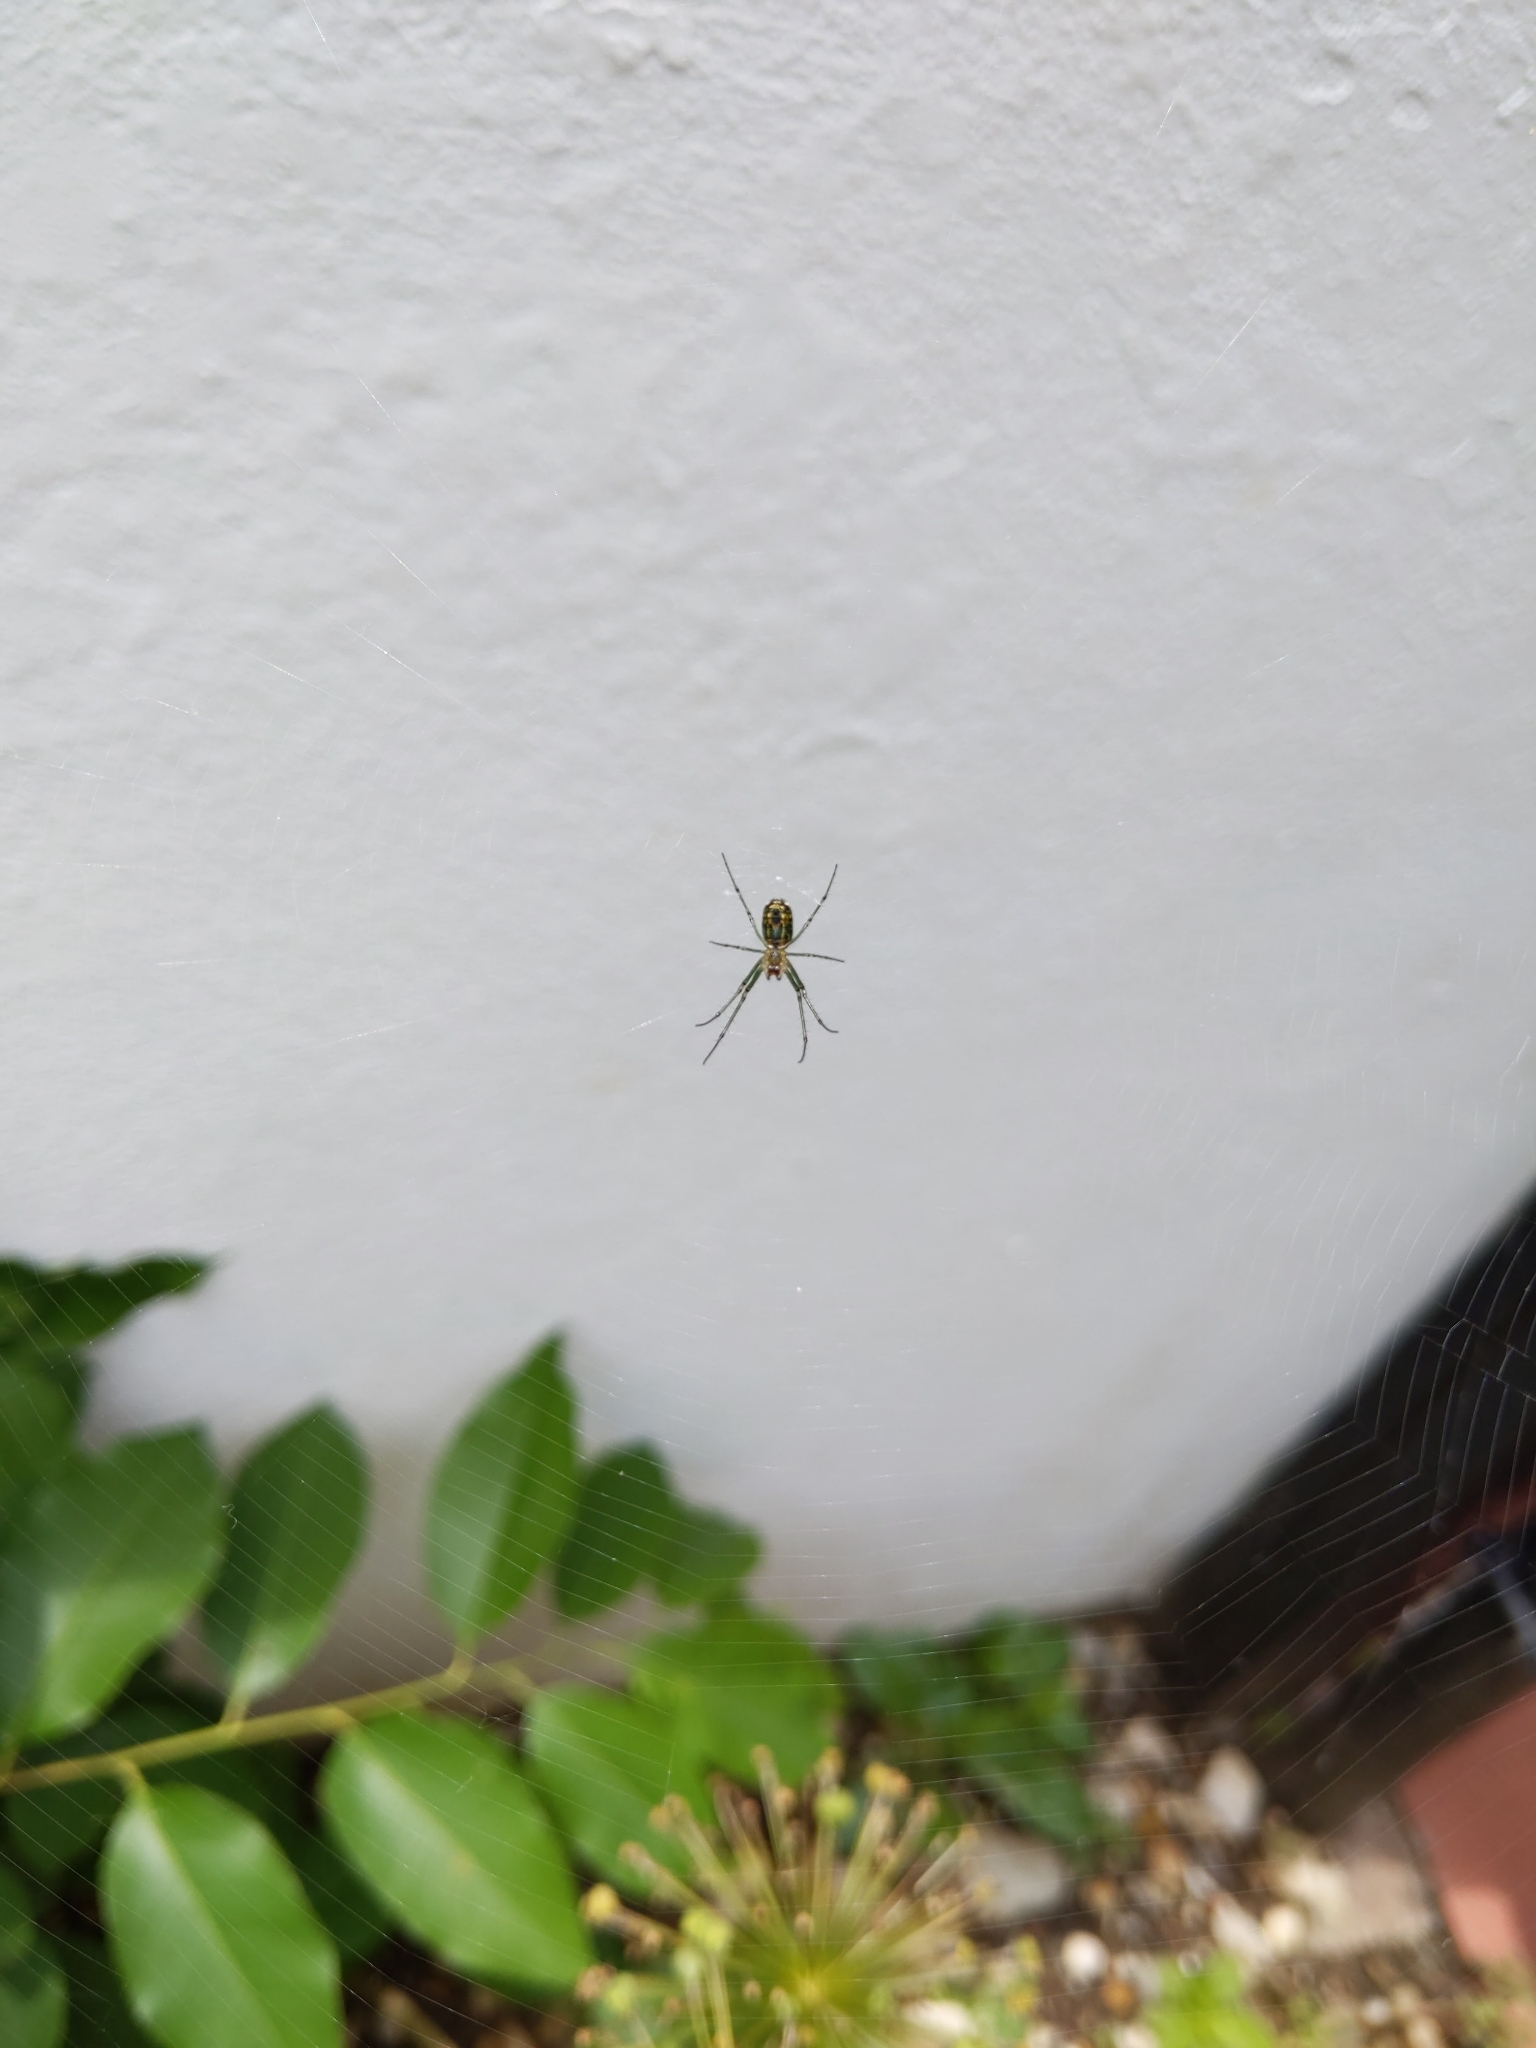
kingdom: Animalia
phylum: Arthropoda
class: Arachnida
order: Araneae
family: Tetragnathidae
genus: Leucauge
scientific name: Leucauge venusta
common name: Longjawed orb weavers
